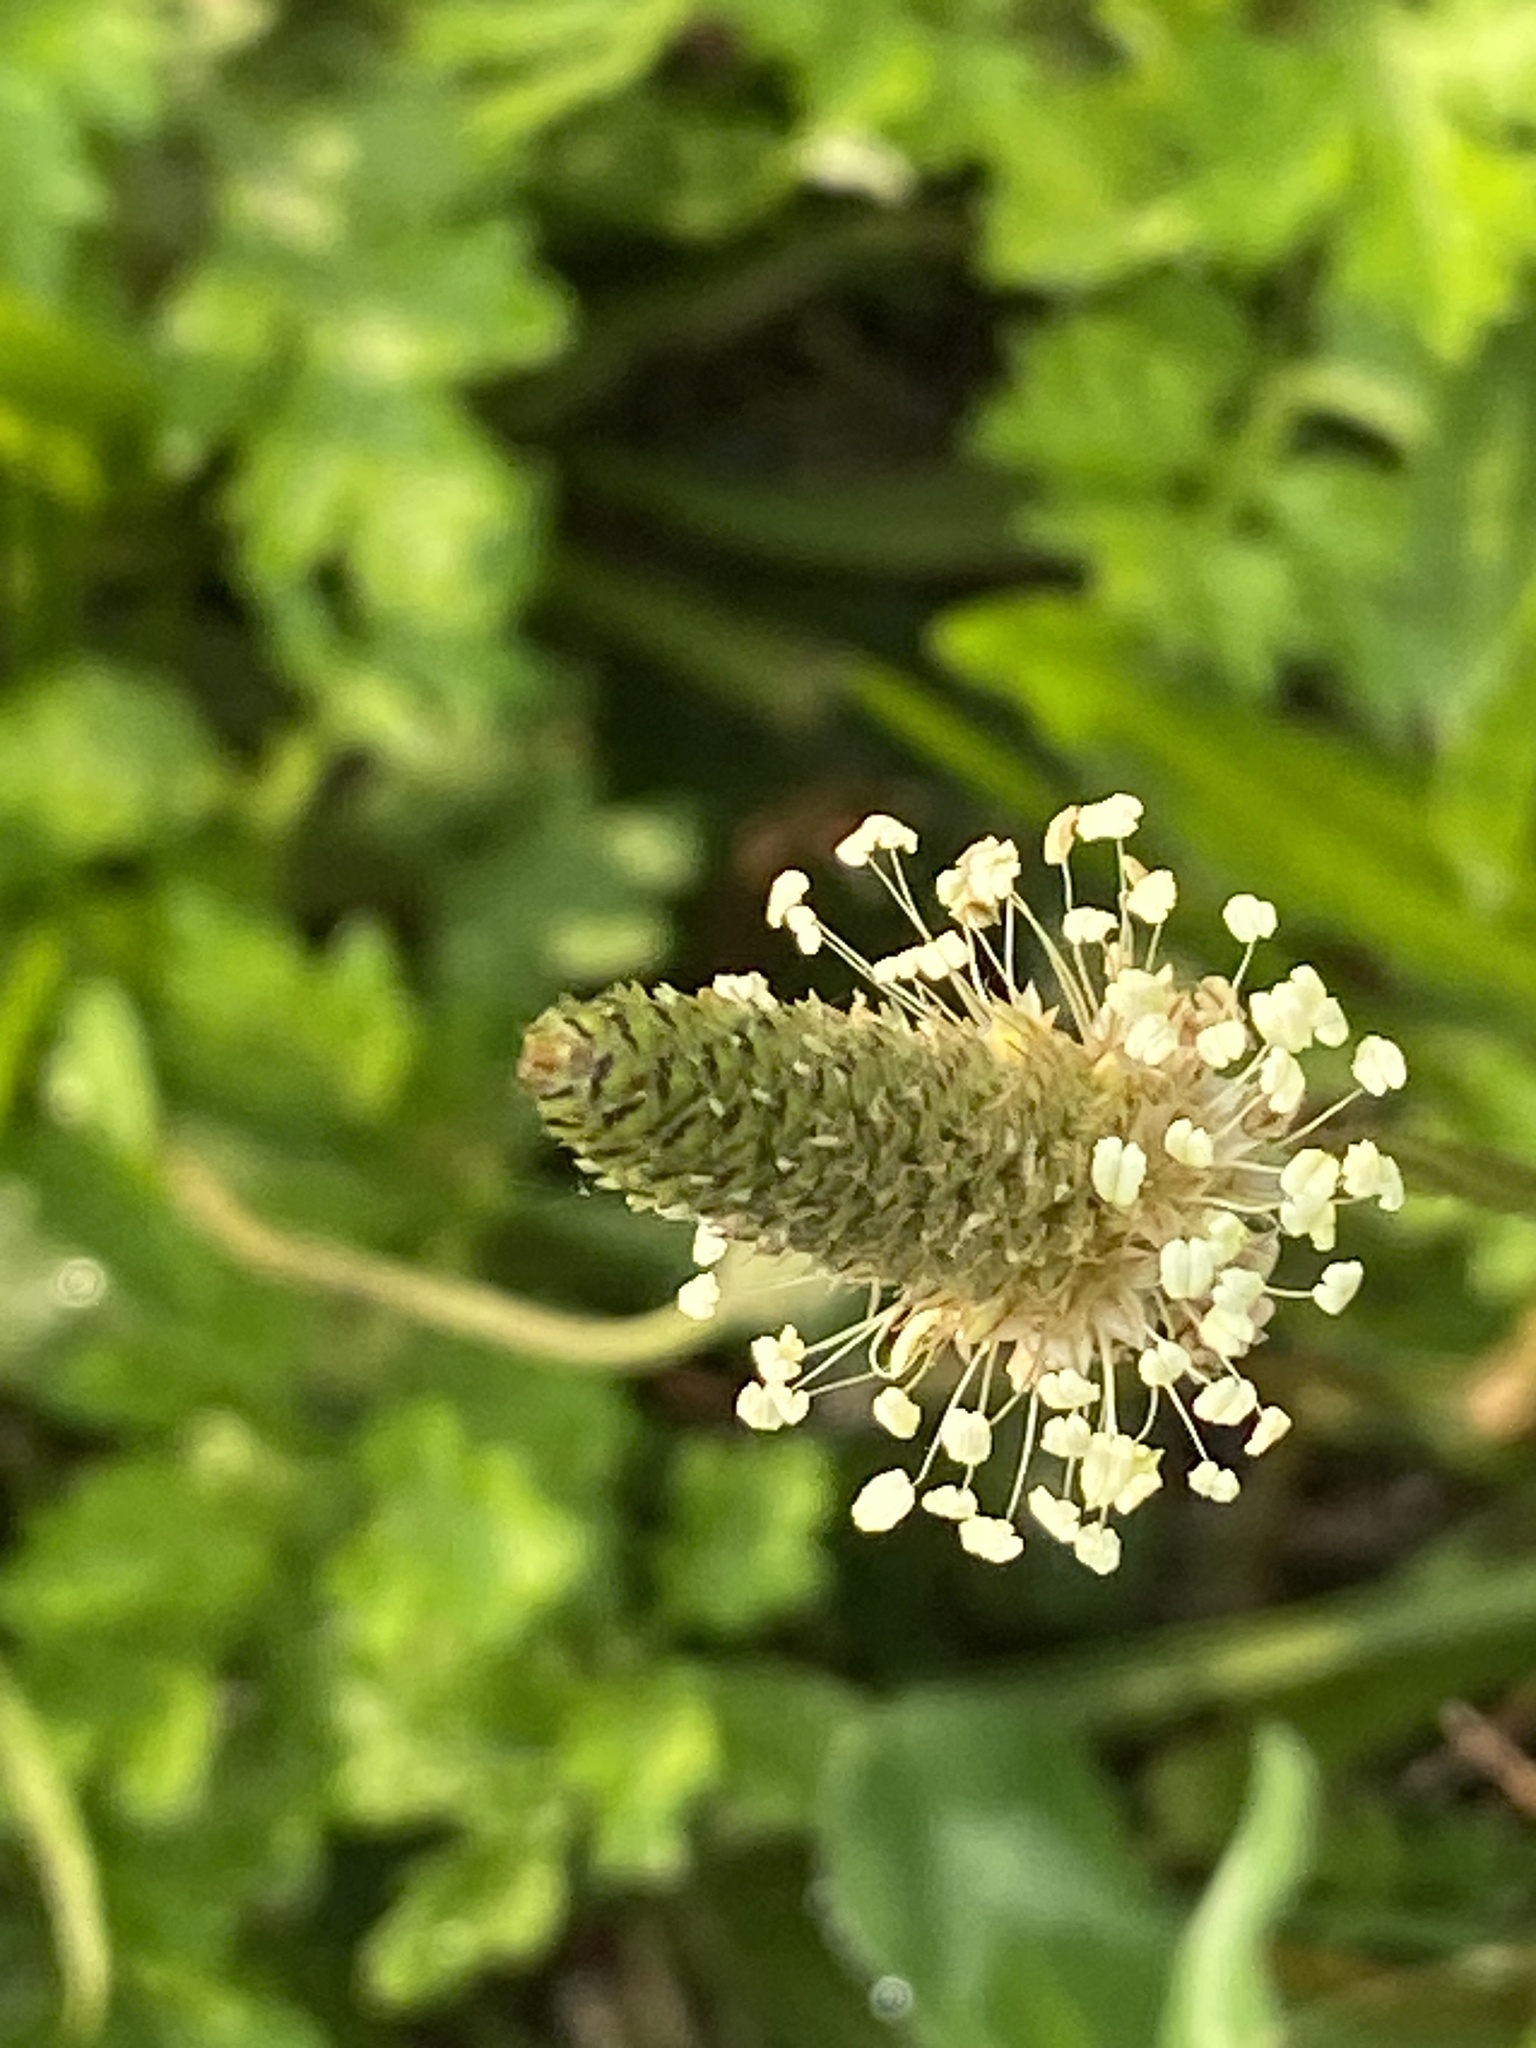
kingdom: Plantae
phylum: Tracheophyta
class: Magnoliopsida
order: Lamiales
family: Plantaginaceae
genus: Plantago
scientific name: Plantago lanceolata
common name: Ribwort plantain
